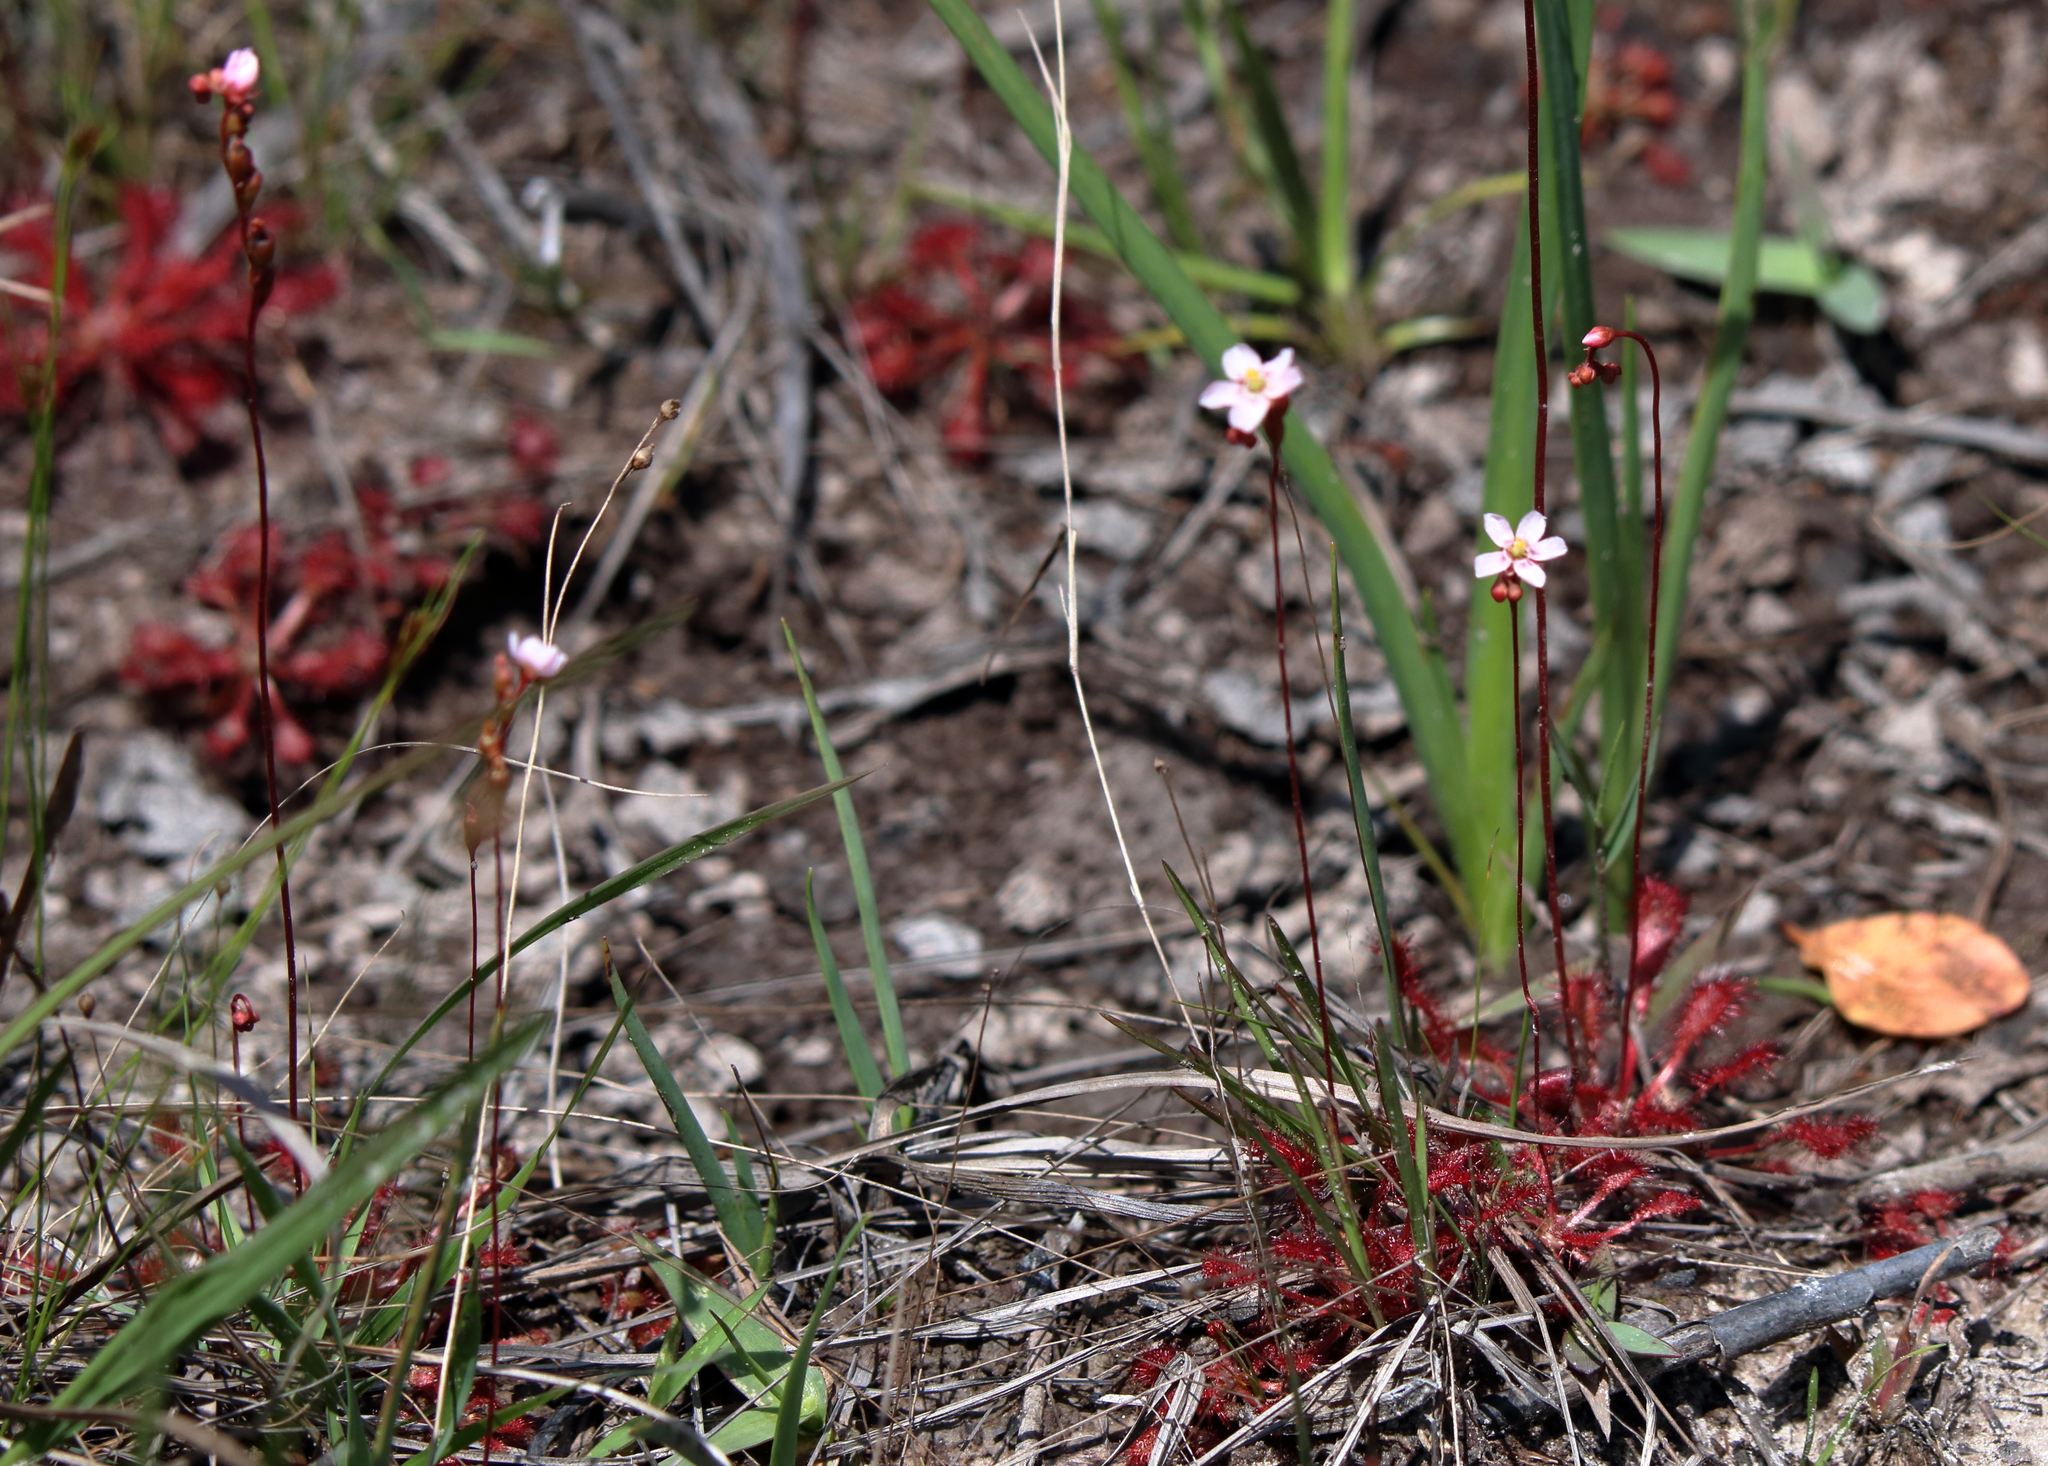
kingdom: Plantae
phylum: Tracheophyta
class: Magnoliopsida
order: Caryophyllales
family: Droseraceae
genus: Drosera
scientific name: Drosera capillaris
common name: Pink sundew
